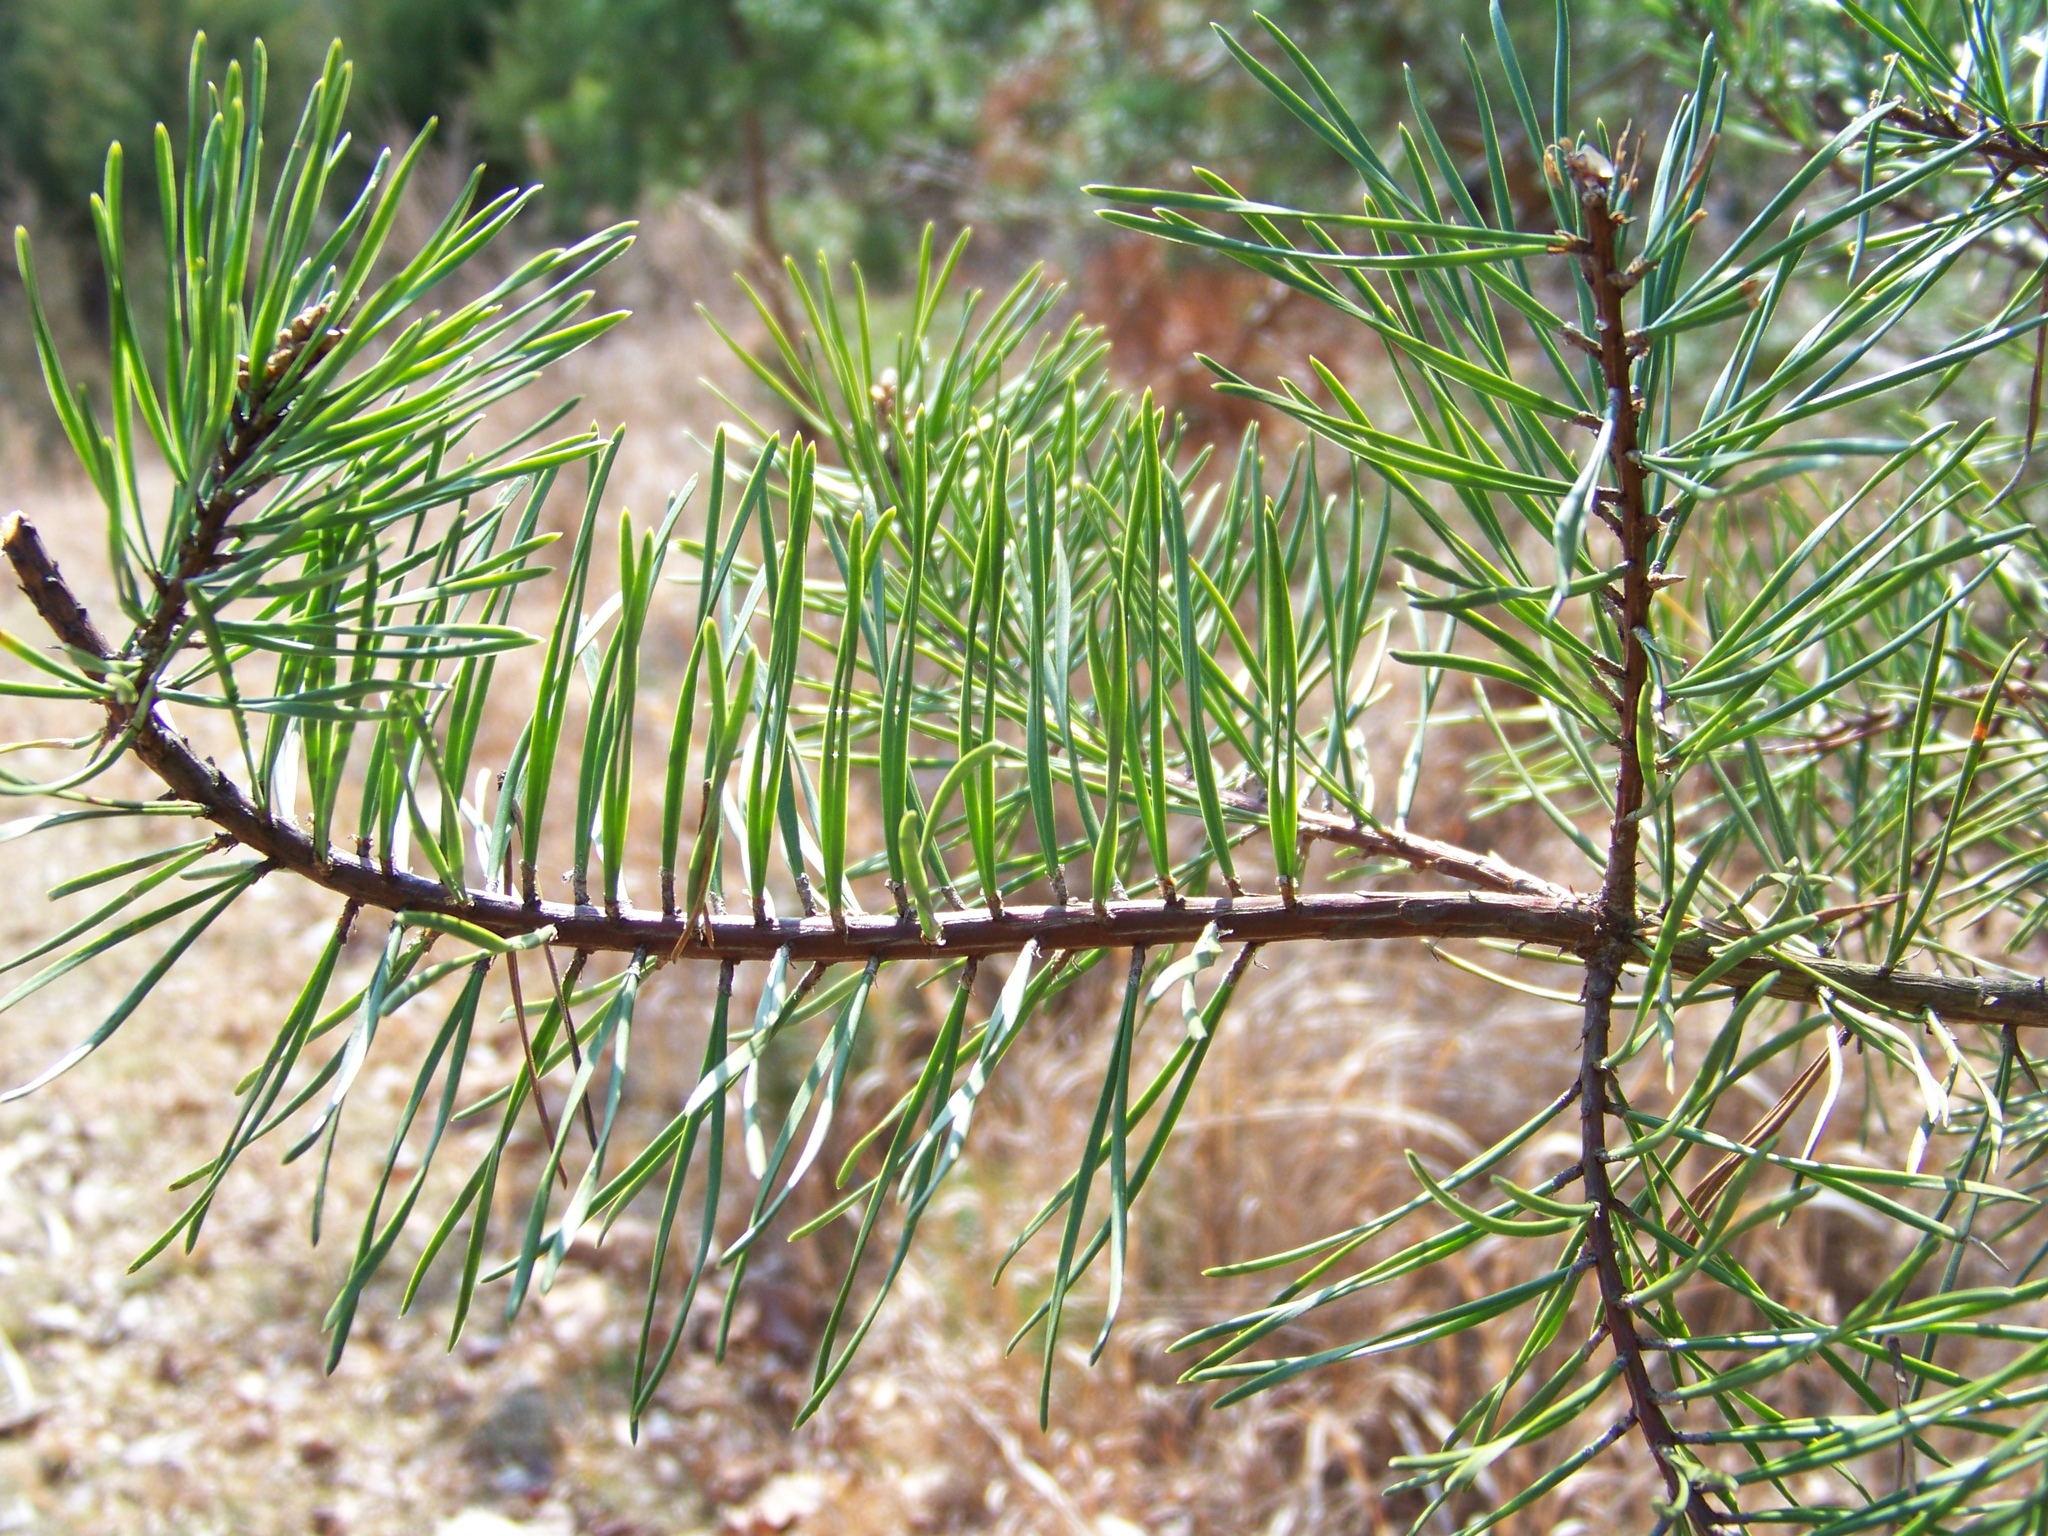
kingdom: Plantae
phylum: Tracheophyta
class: Pinopsida
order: Pinales
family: Pinaceae
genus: Pinus
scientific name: Pinus virginiana
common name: Scrub pine
